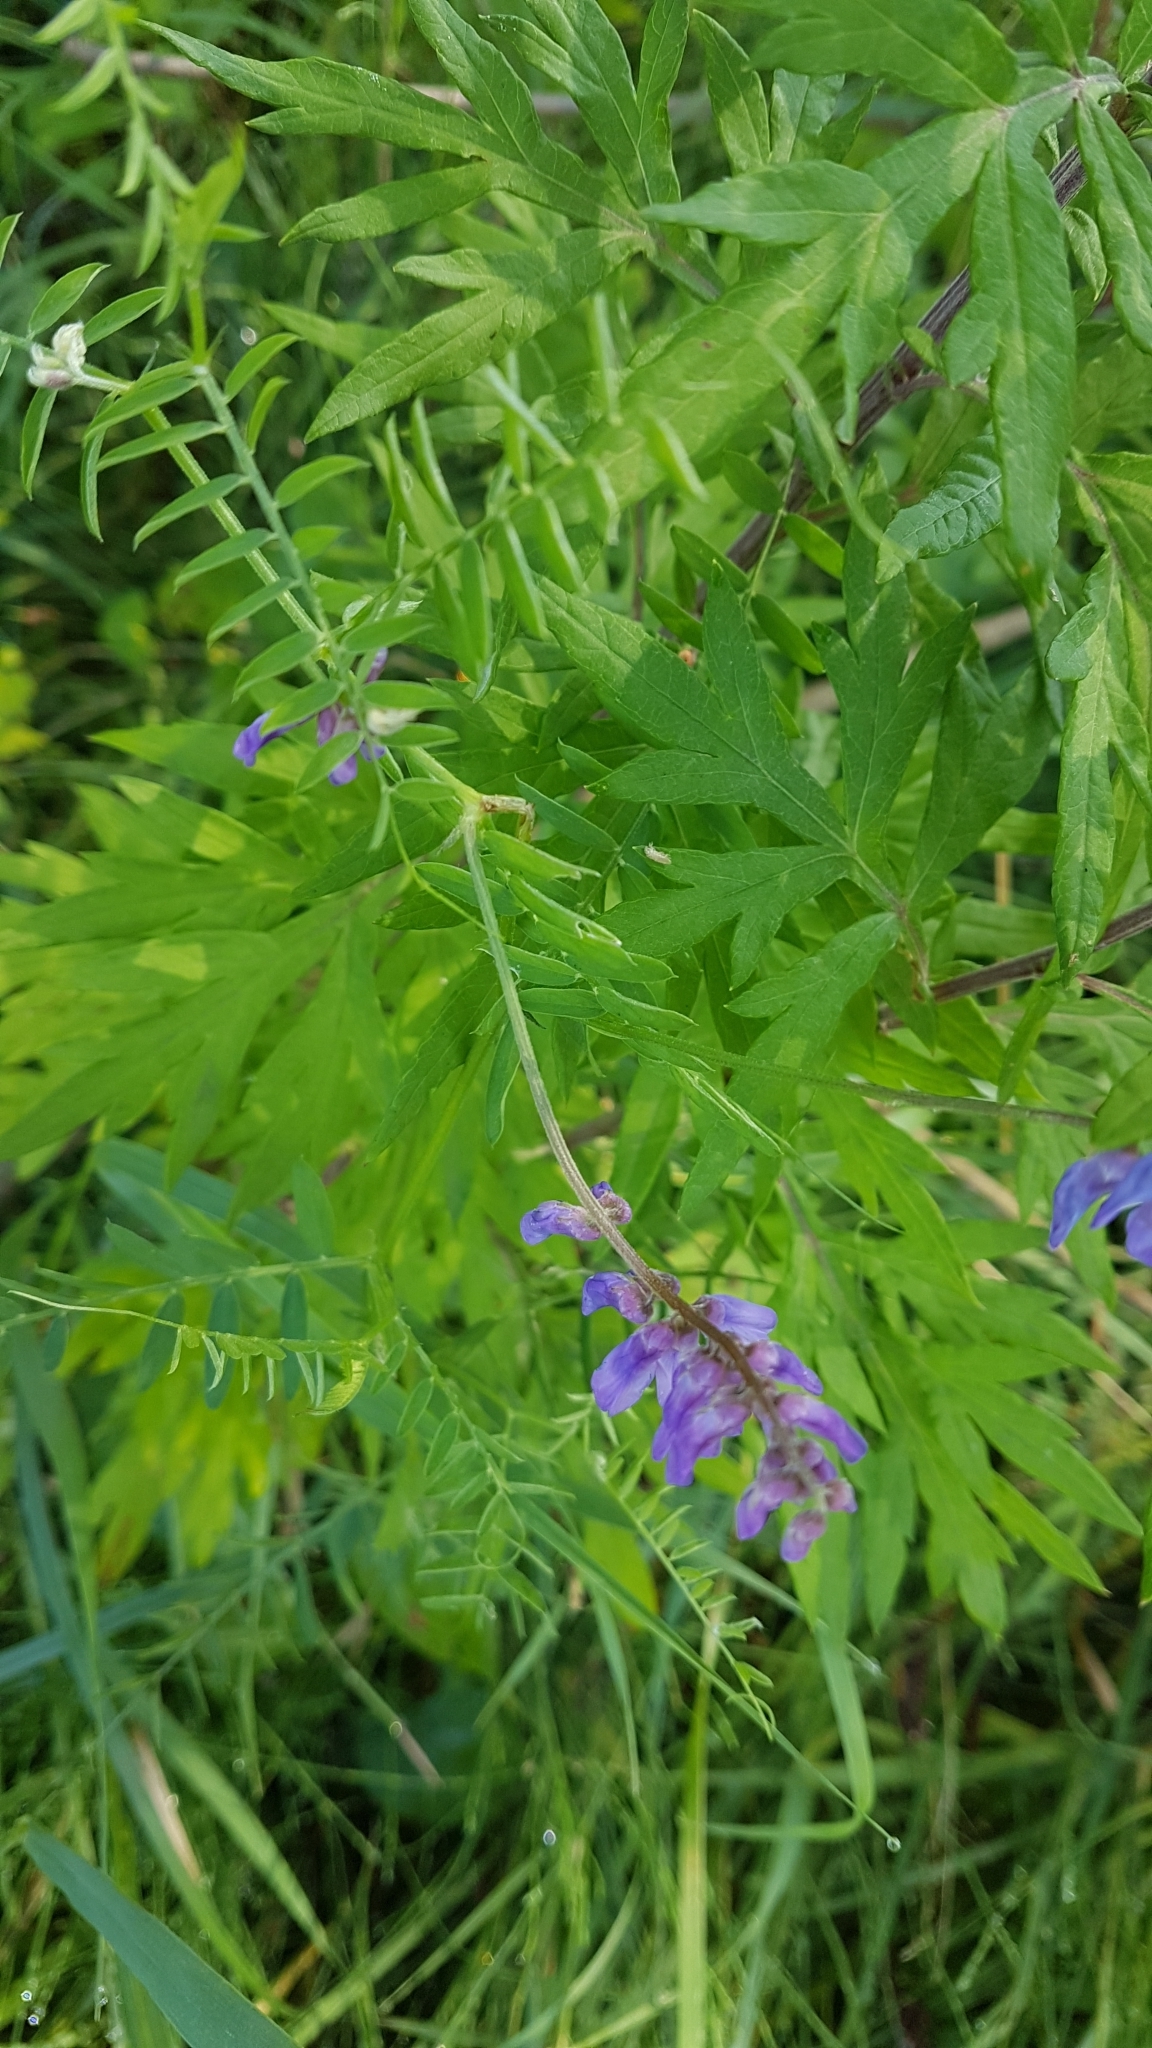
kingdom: Plantae
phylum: Tracheophyta
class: Magnoliopsida
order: Fabales
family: Fabaceae
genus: Vicia
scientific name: Vicia cracca
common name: Bird vetch
